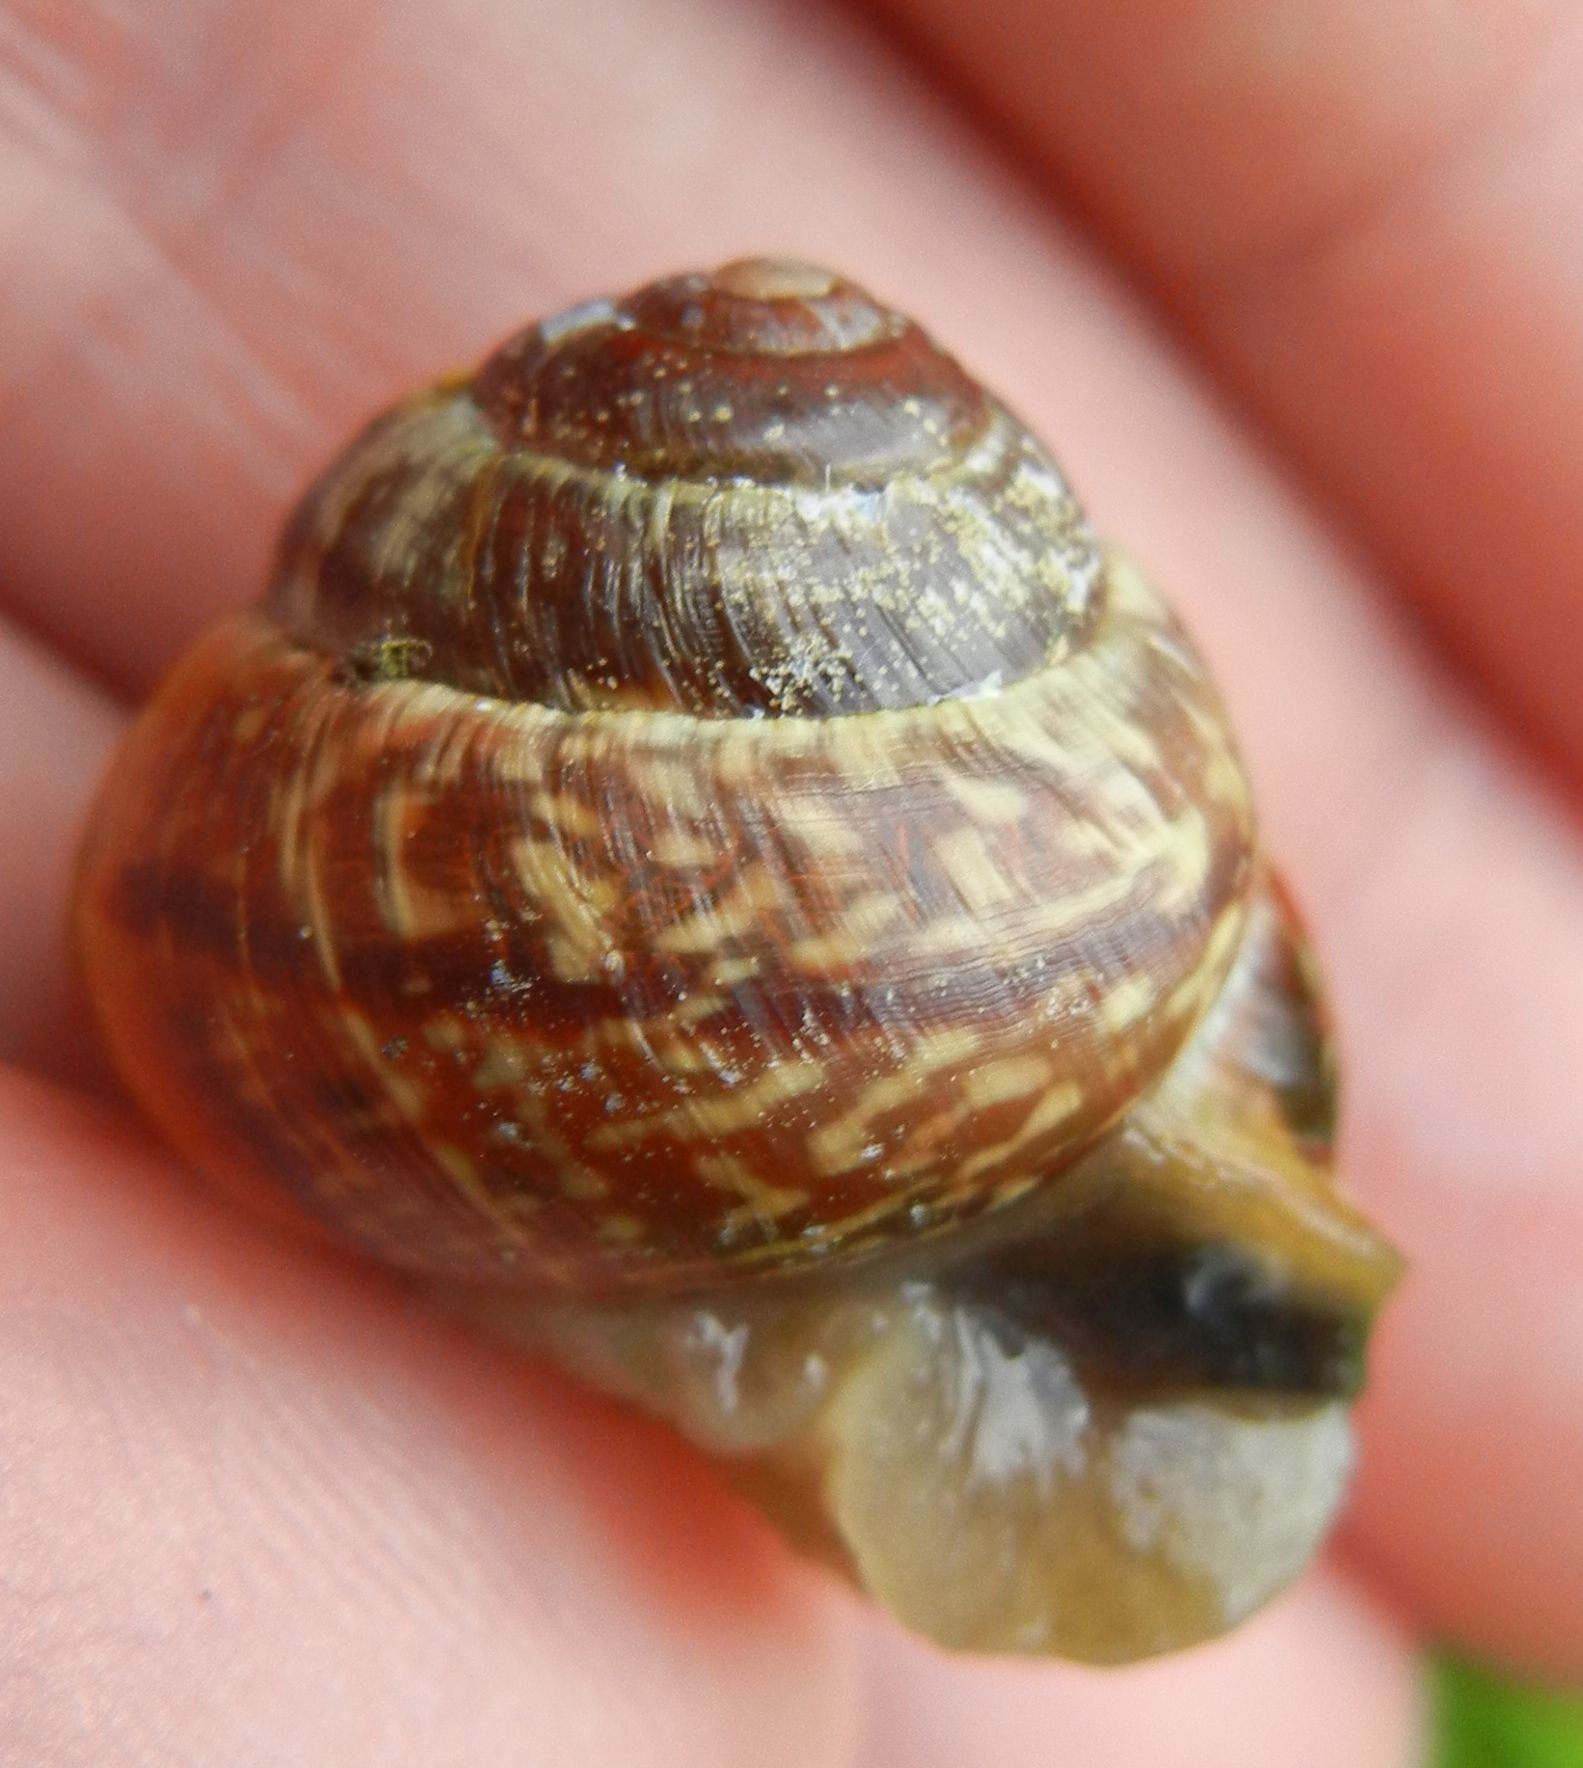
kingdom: Animalia
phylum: Mollusca
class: Gastropoda
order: Stylommatophora
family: Helicidae
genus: Arianta
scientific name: Arianta arbustorum
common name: Copse snail
